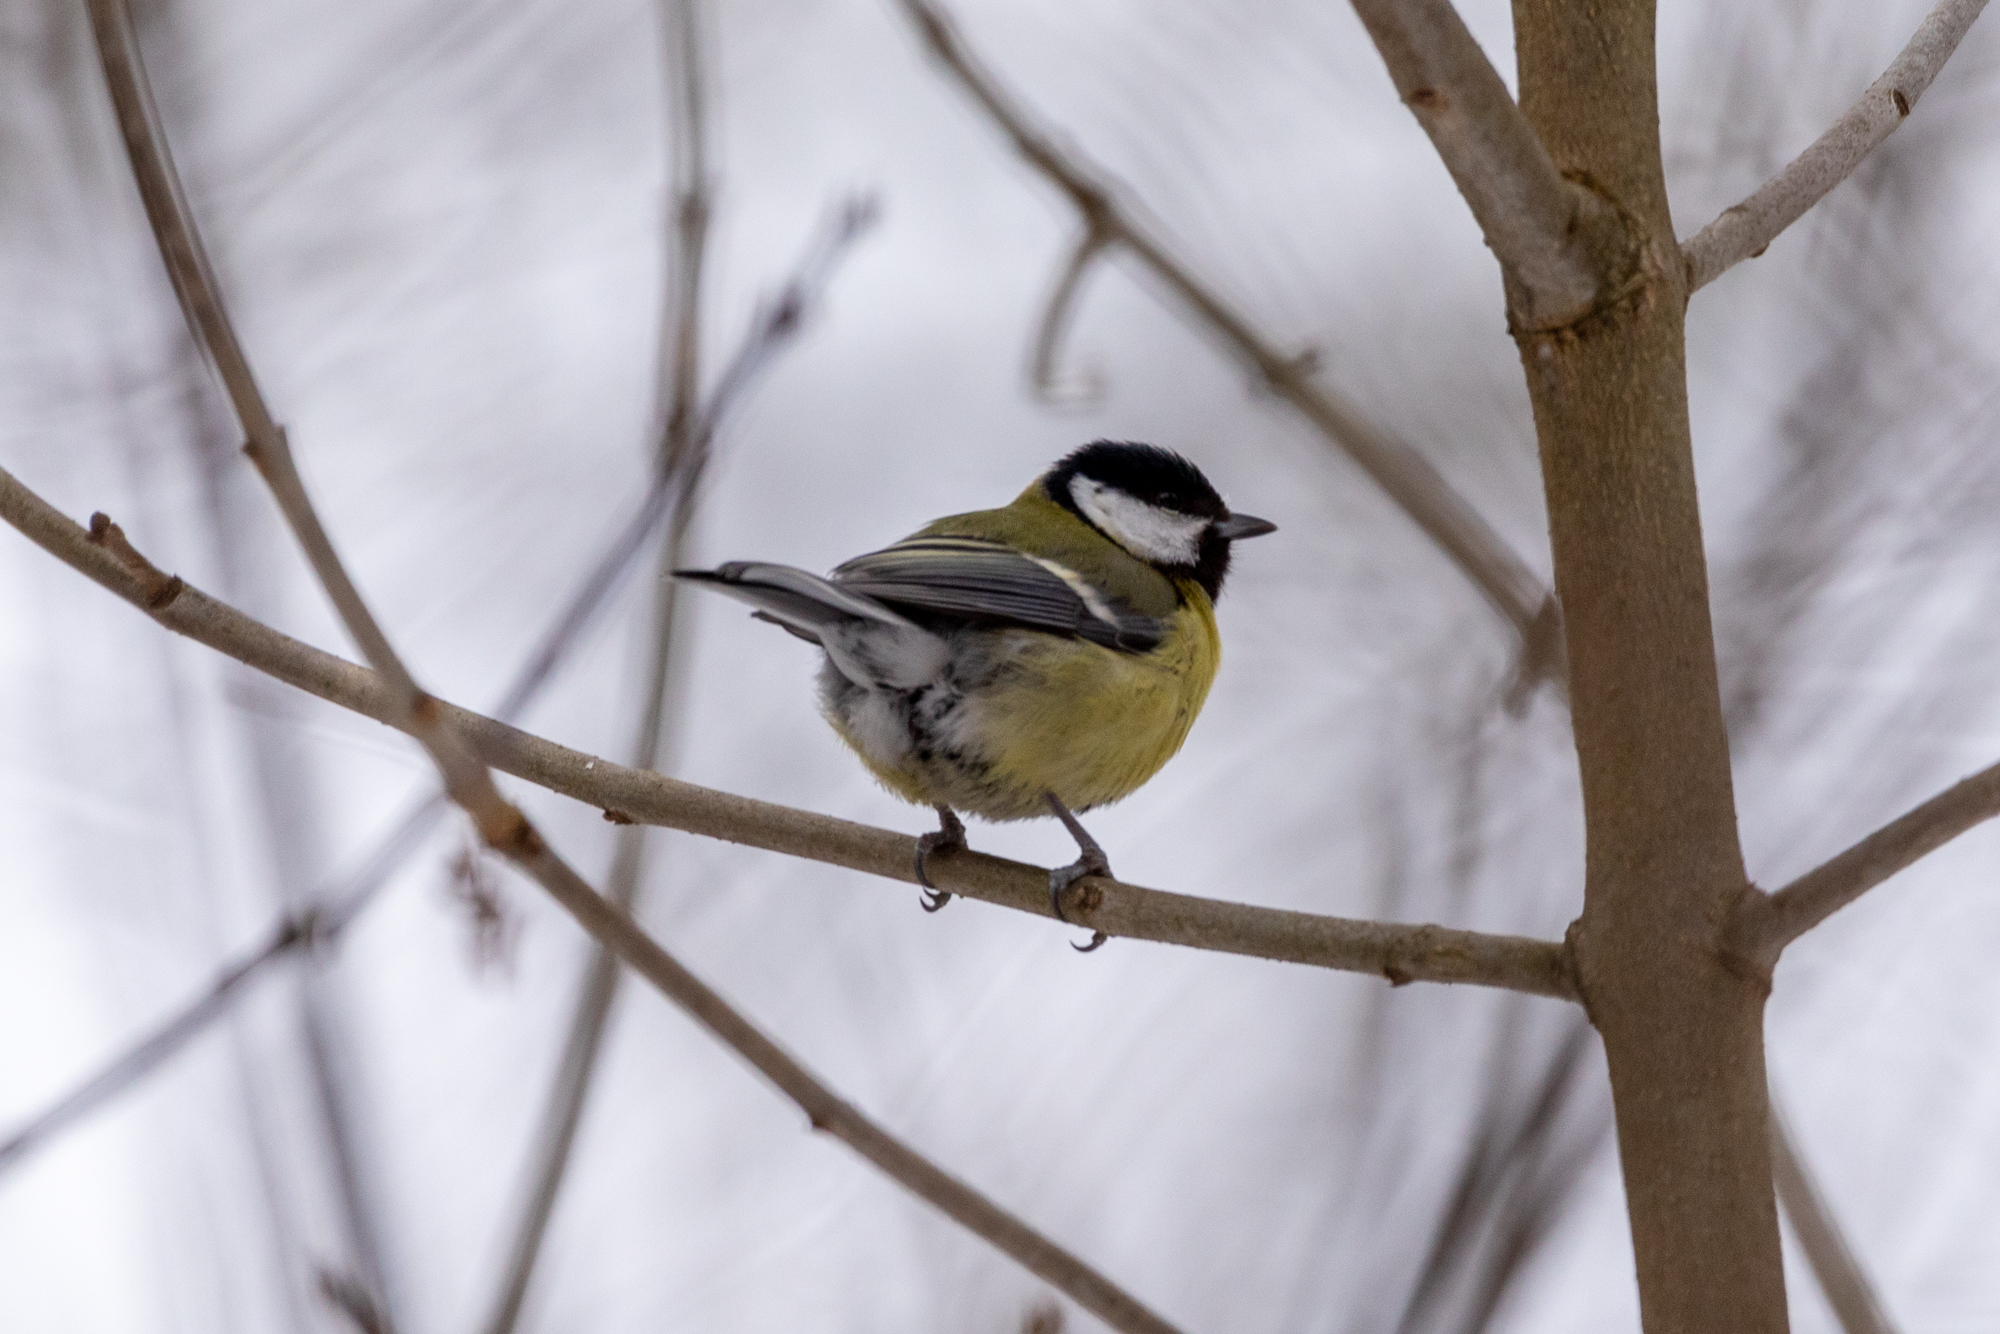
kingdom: Animalia
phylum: Chordata
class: Aves
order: Passeriformes
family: Paridae
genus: Parus
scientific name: Parus major
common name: Great tit
